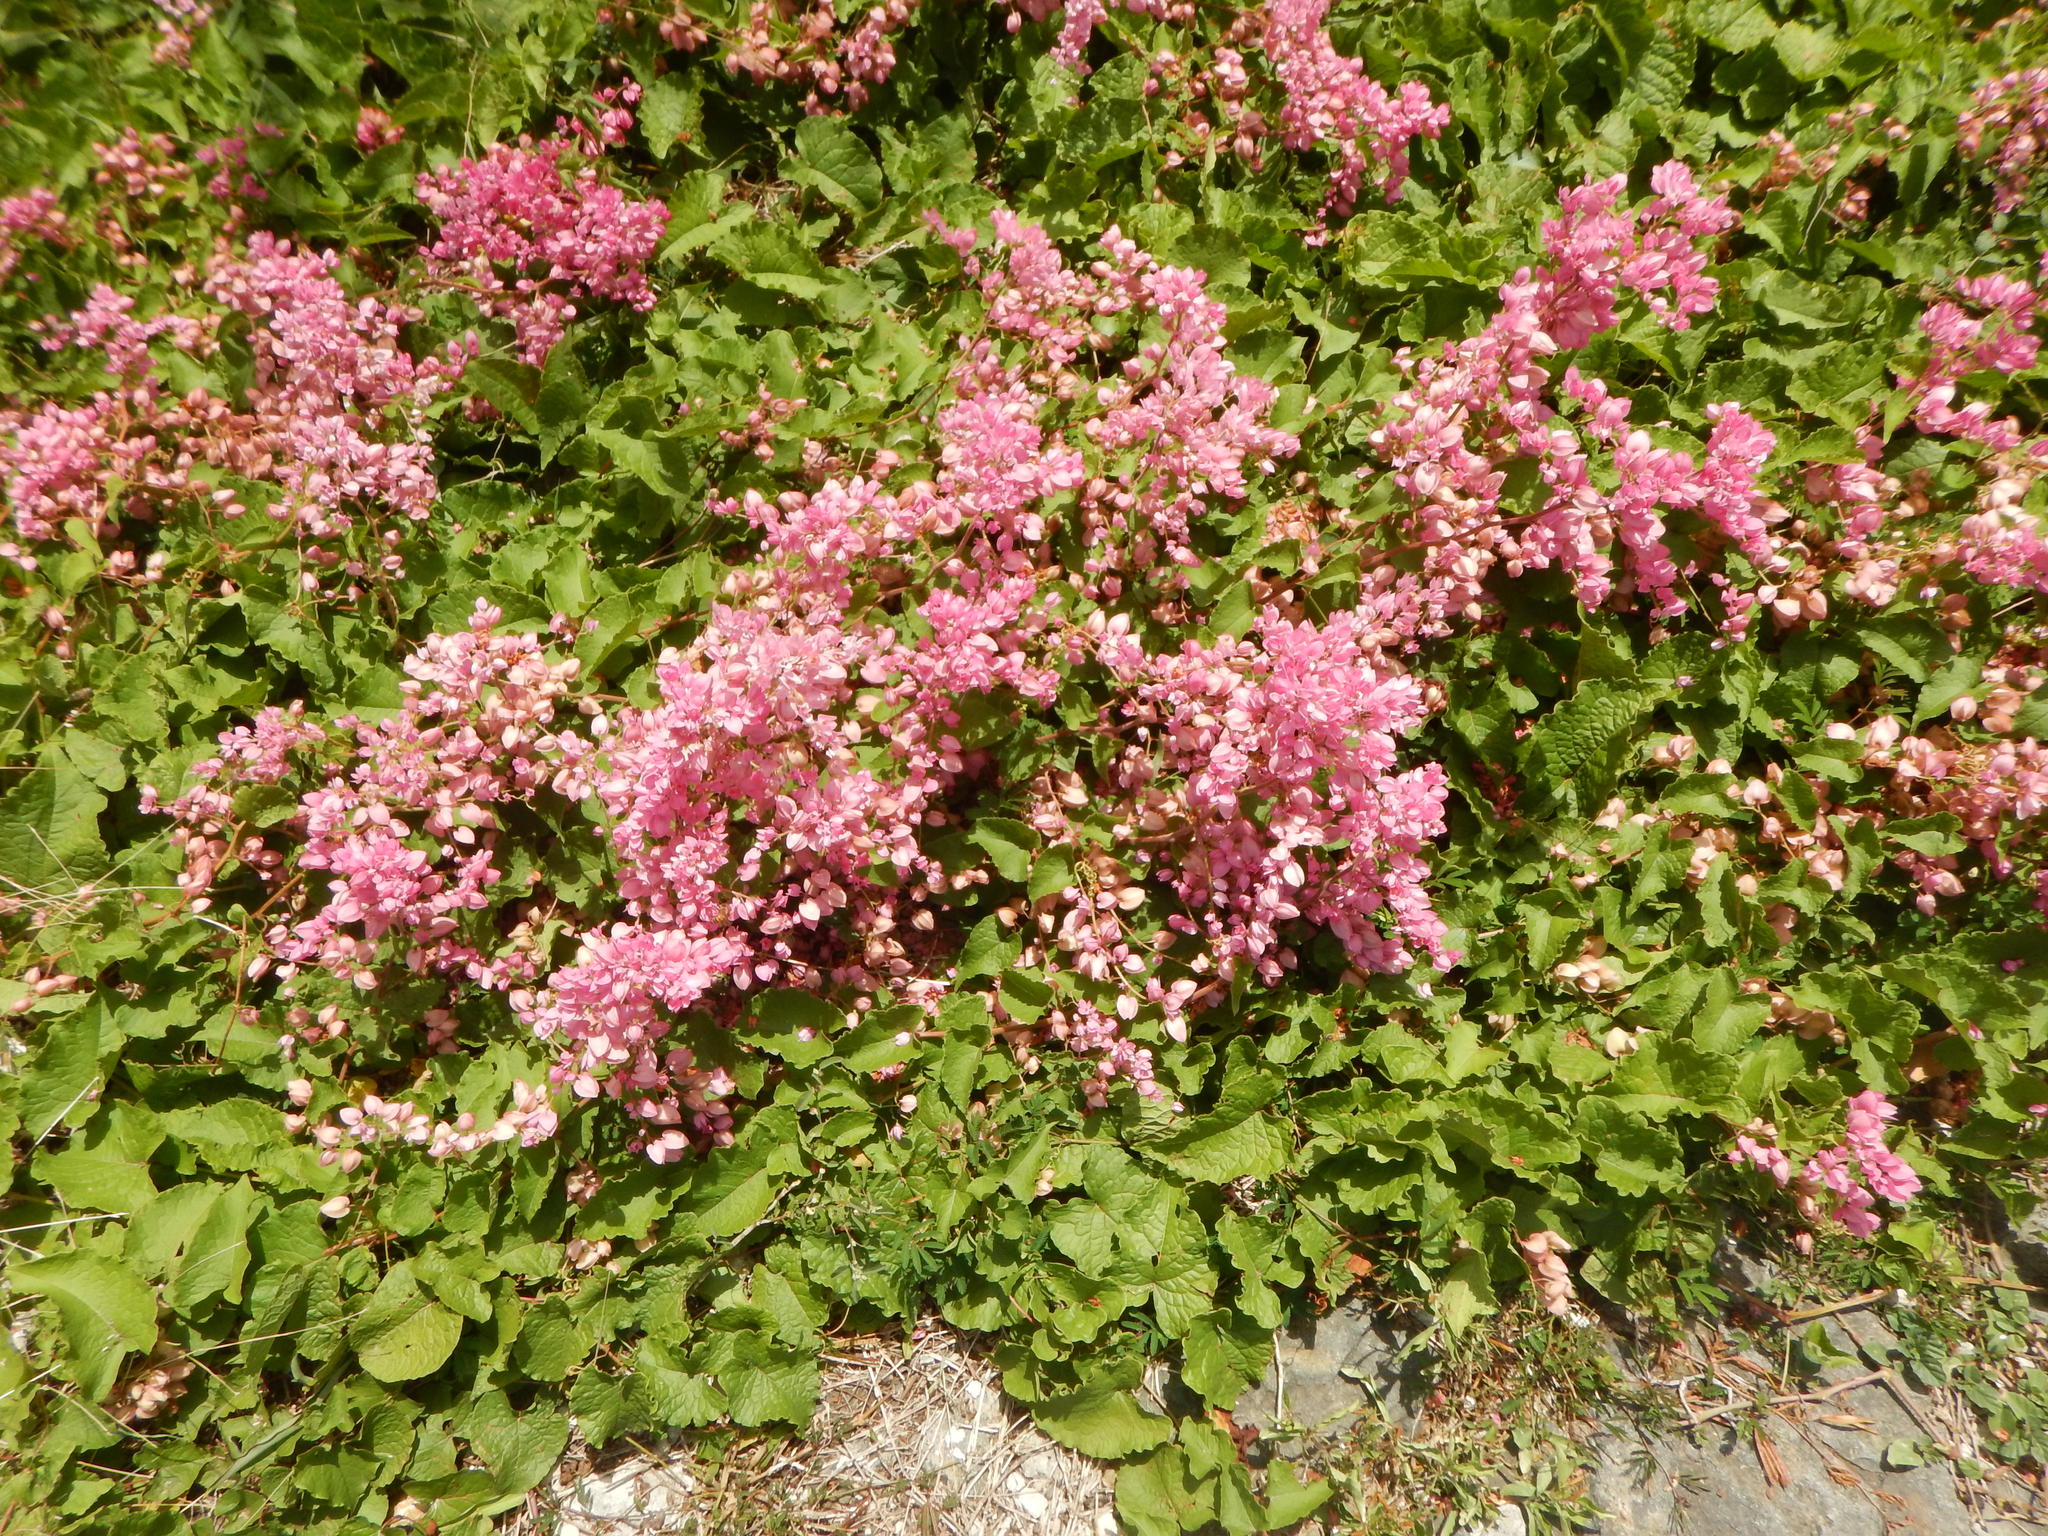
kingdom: Plantae
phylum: Tracheophyta
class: Magnoliopsida
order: Caryophyllales
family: Polygonaceae
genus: Antigonon
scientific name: Antigonon leptopus
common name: Coral vine
